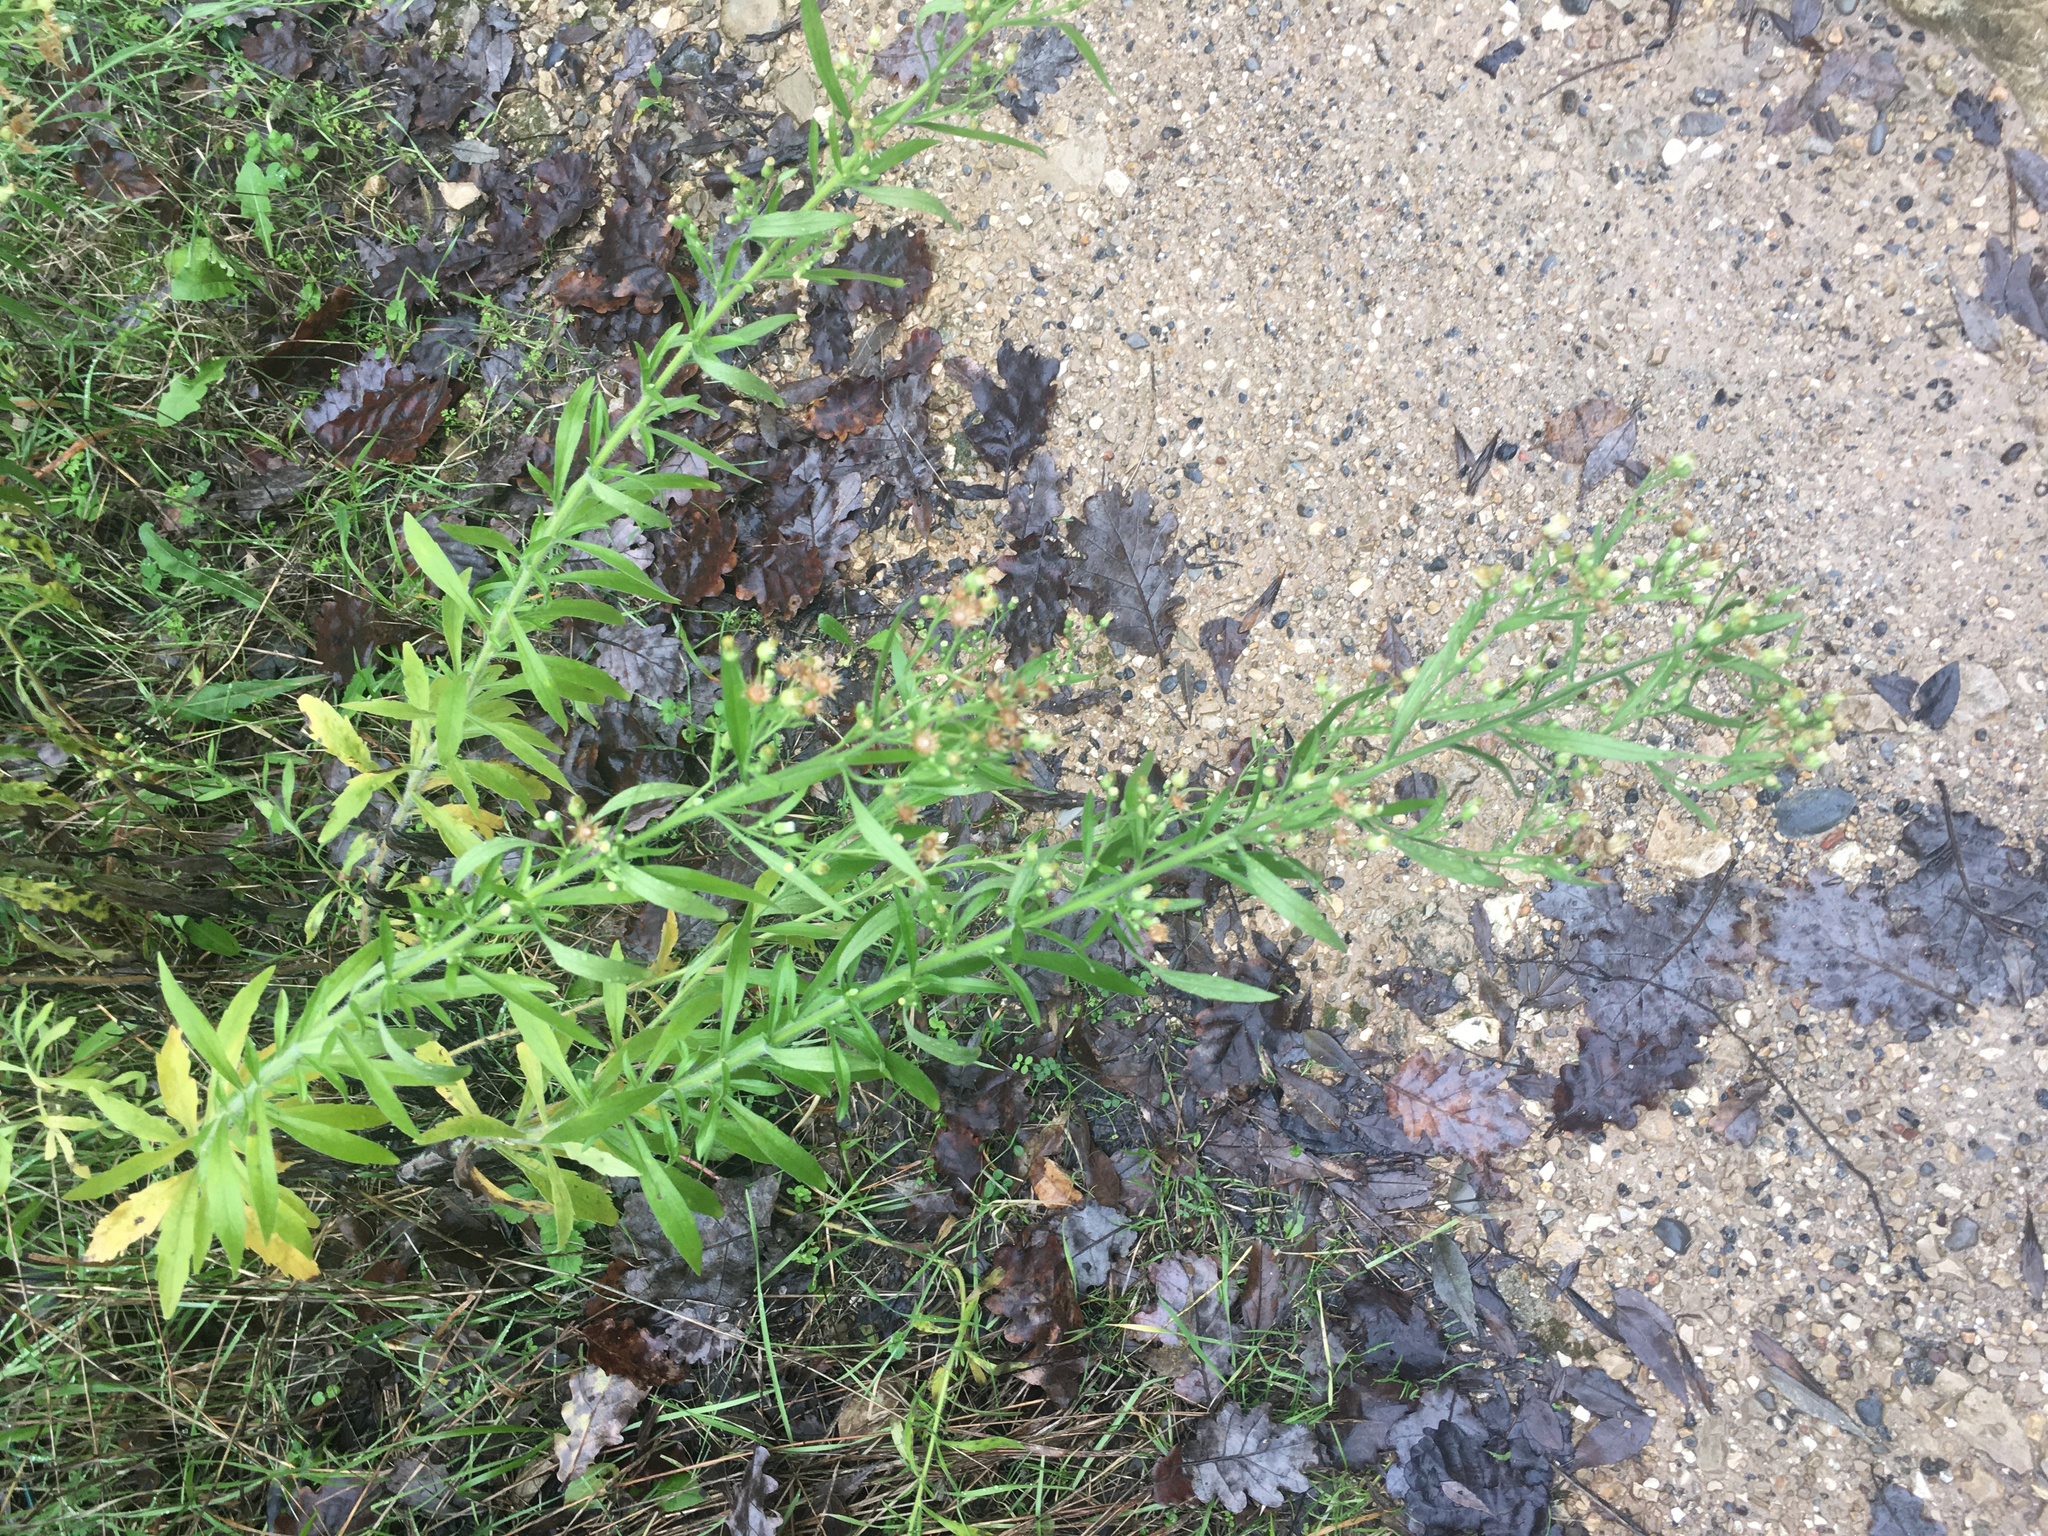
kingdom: Plantae
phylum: Tracheophyta
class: Magnoliopsida
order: Asterales
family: Asteraceae
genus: Dittrichia
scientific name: Dittrichia viscosa
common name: Woody fleabane
